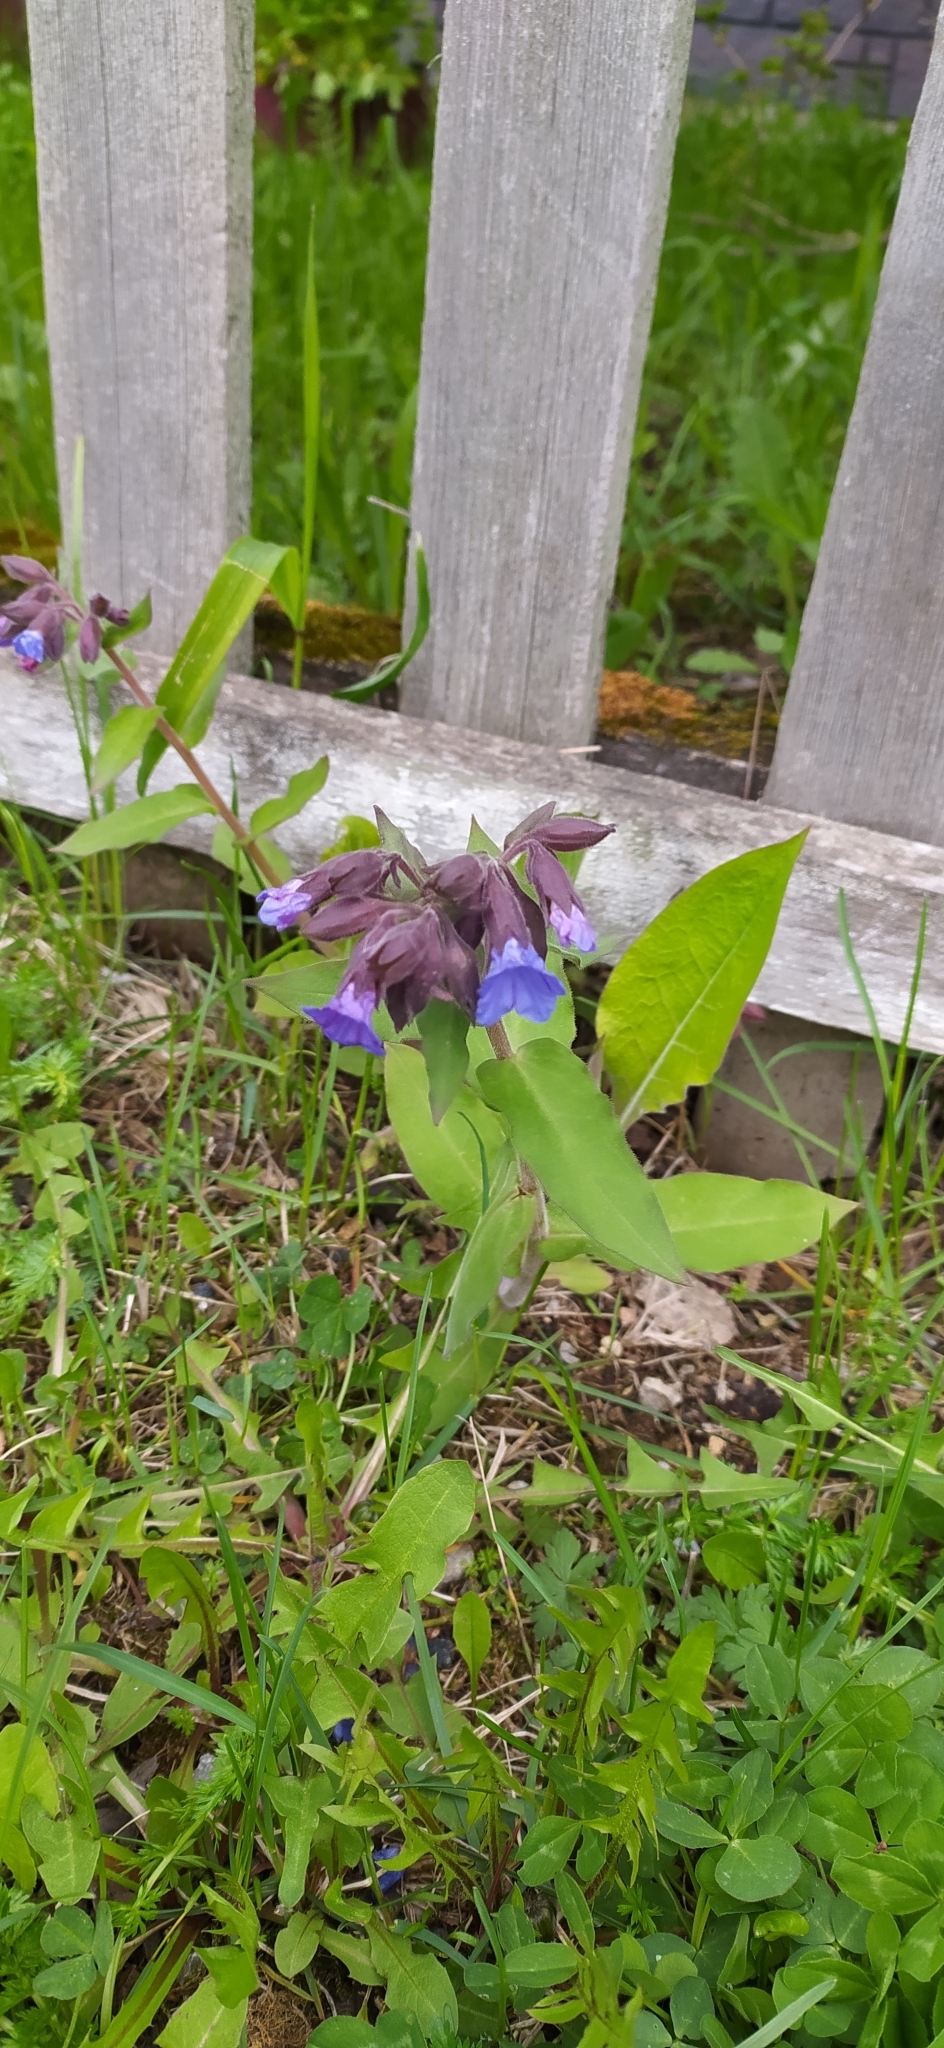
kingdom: Plantae
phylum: Tracheophyta
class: Magnoliopsida
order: Boraginales
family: Boraginaceae
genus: Pulmonaria
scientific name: Pulmonaria mollis
